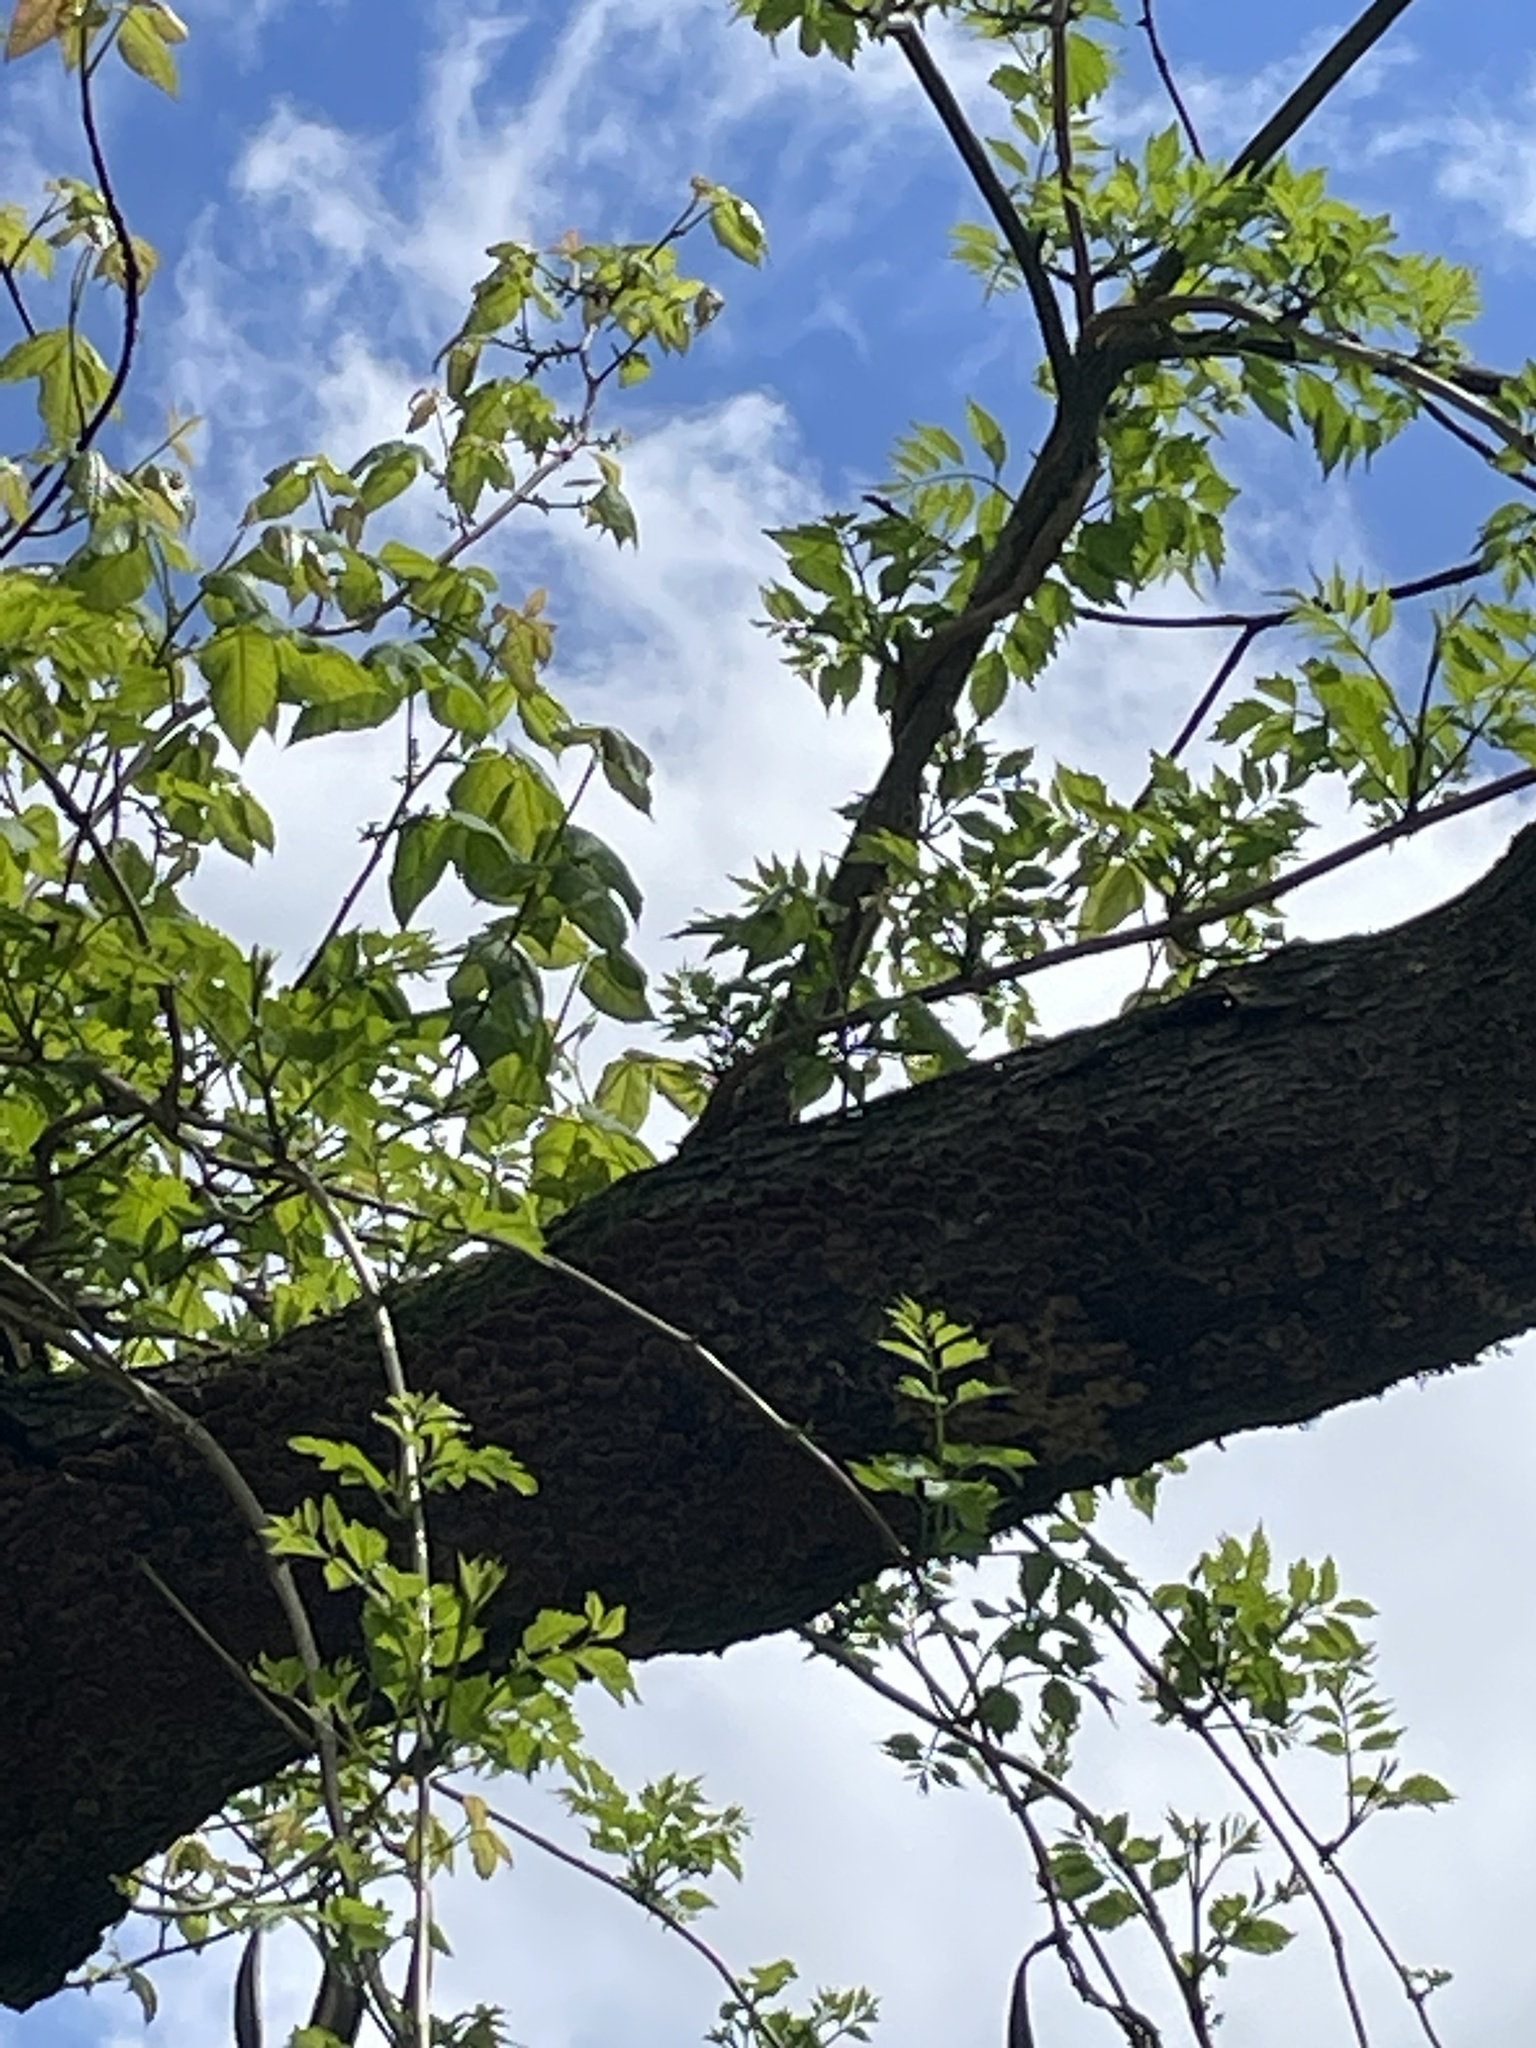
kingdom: Plantae
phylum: Tracheophyta
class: Magnoliopsida
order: Lamiales
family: Bignoniaceae
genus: Campsis
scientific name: Campsis radicans
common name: Trumpet-creeper
